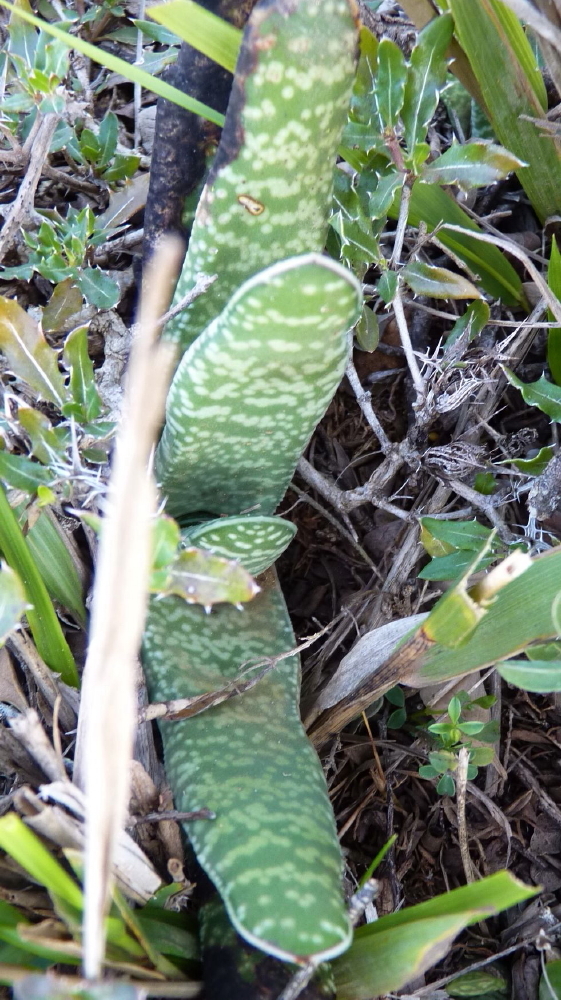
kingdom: Plantae
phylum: Tracheophyta
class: Liliopsida
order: Asparagales
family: Asphodelaceae
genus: Gasteria
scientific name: Gasteria carinata
